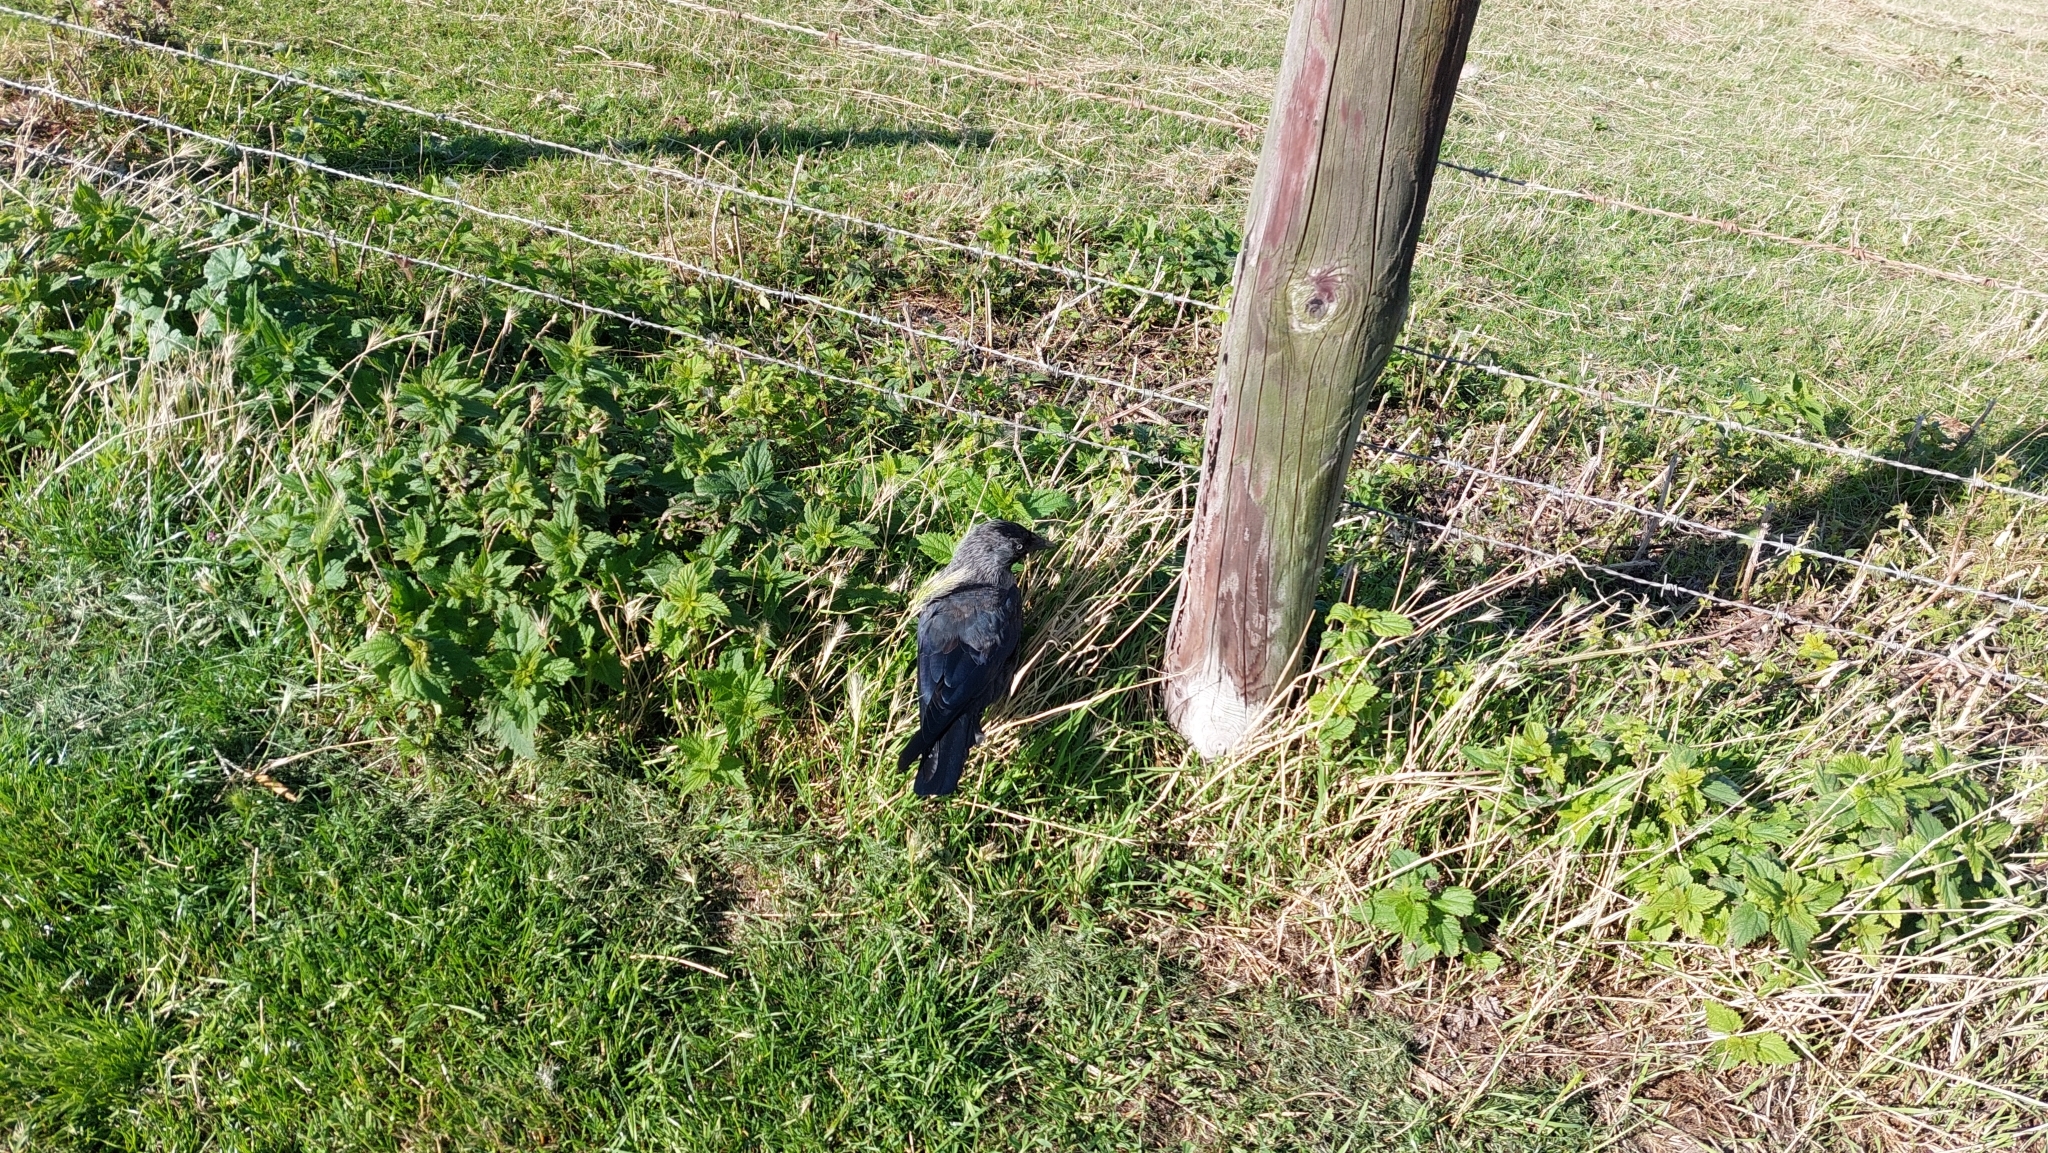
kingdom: Animalia
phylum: Chordata
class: Aves
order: Passeriformes
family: Corvidae
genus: Coloeus
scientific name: Coloeus monedula
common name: Western jackdaw
